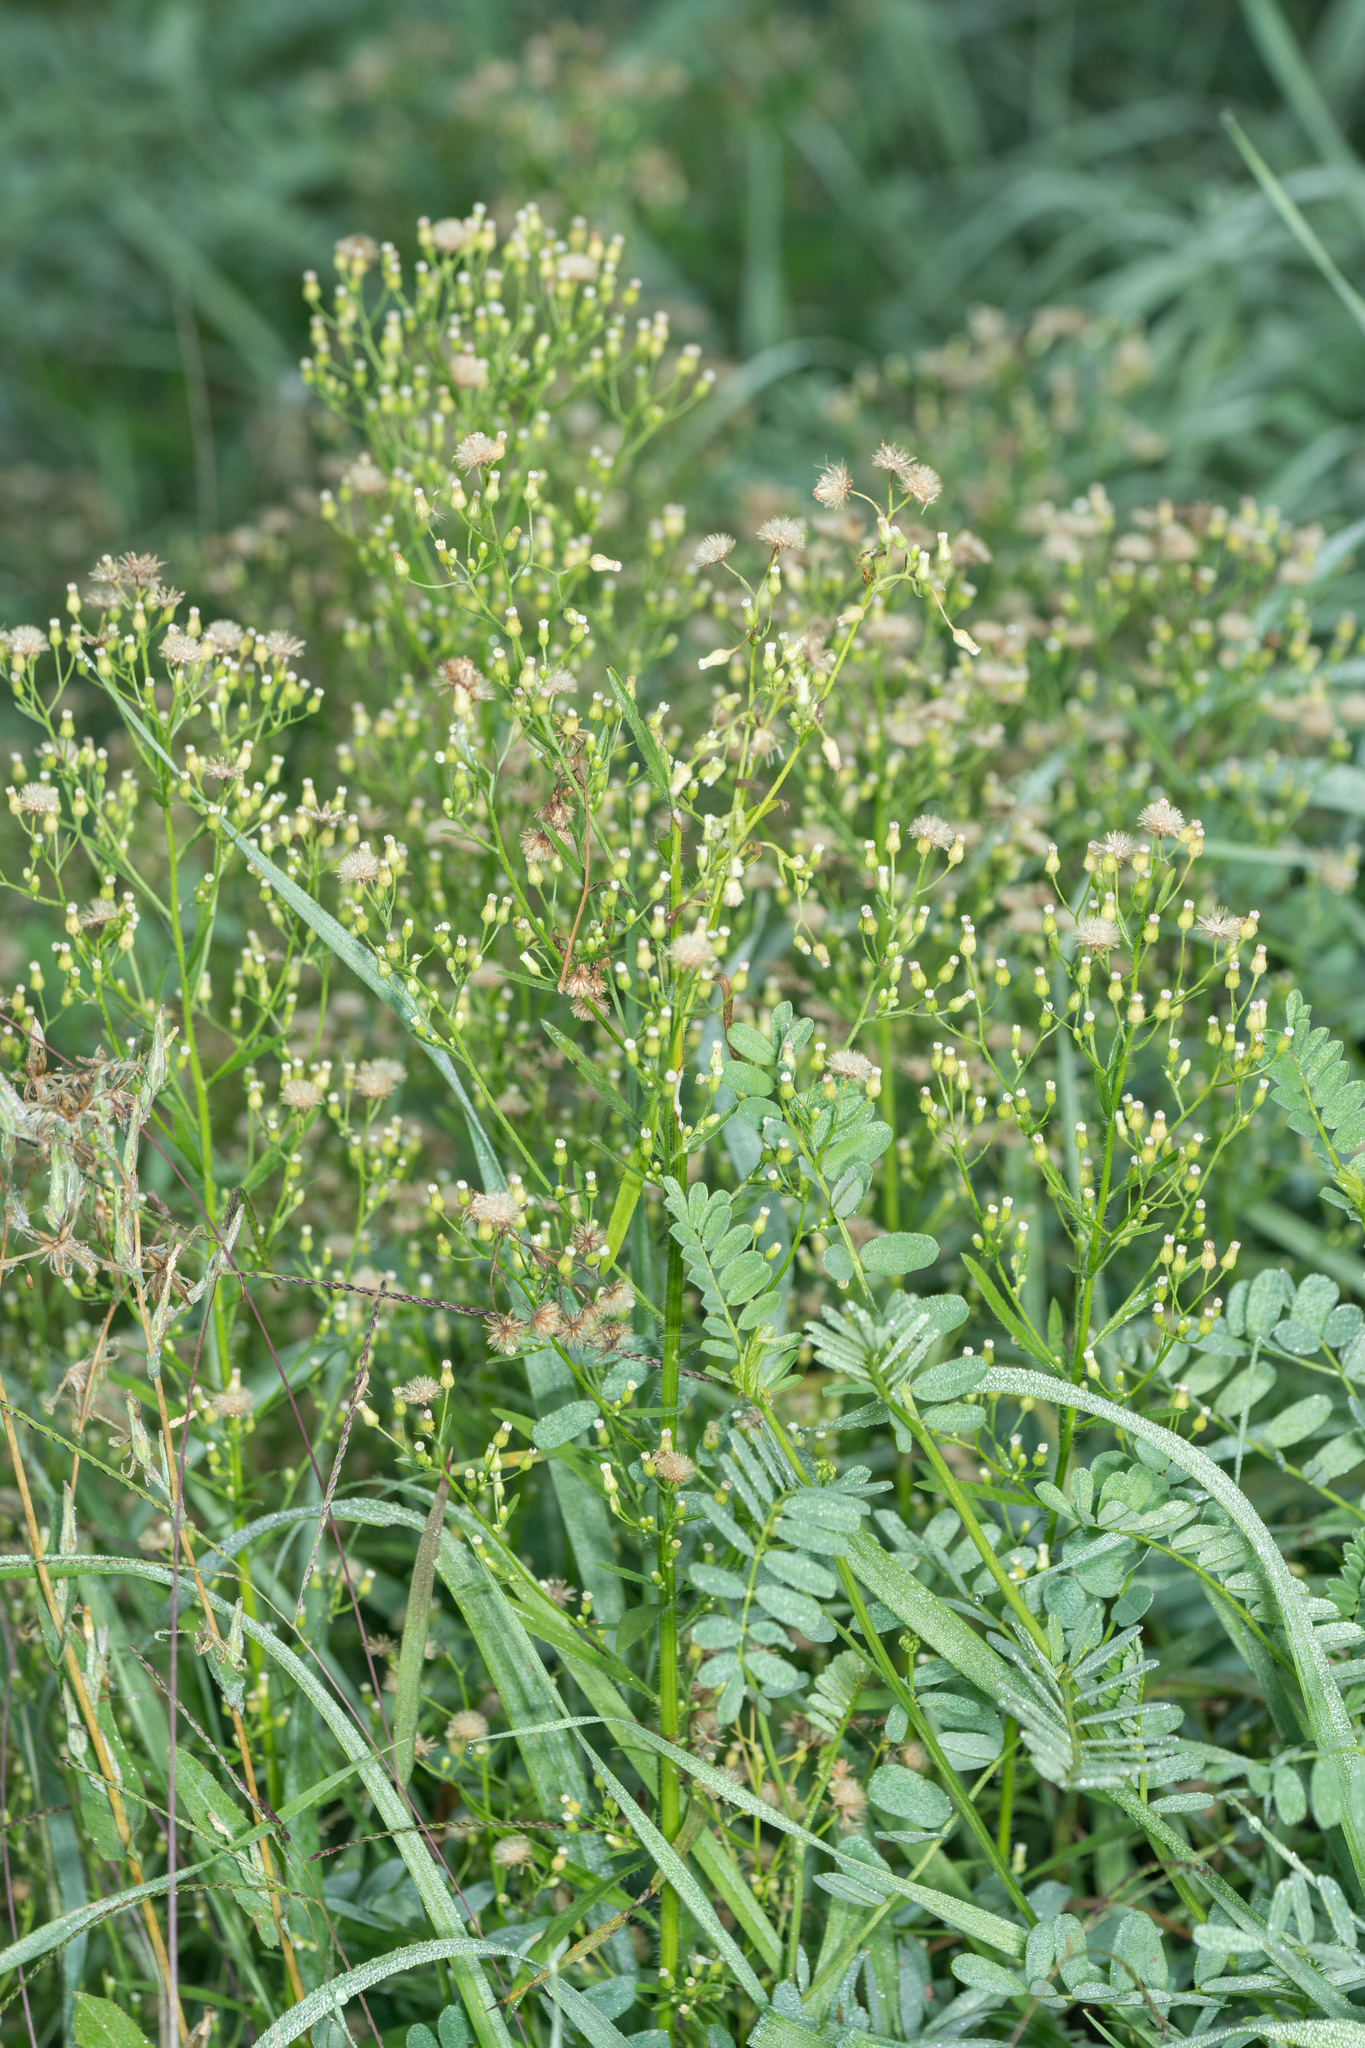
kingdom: Plantae
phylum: Tracheophyta
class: Magnoliopsida
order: Asterales
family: Asteraceae
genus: Erigeron
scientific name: Erigeron canadensis
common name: Canadian fleabane
